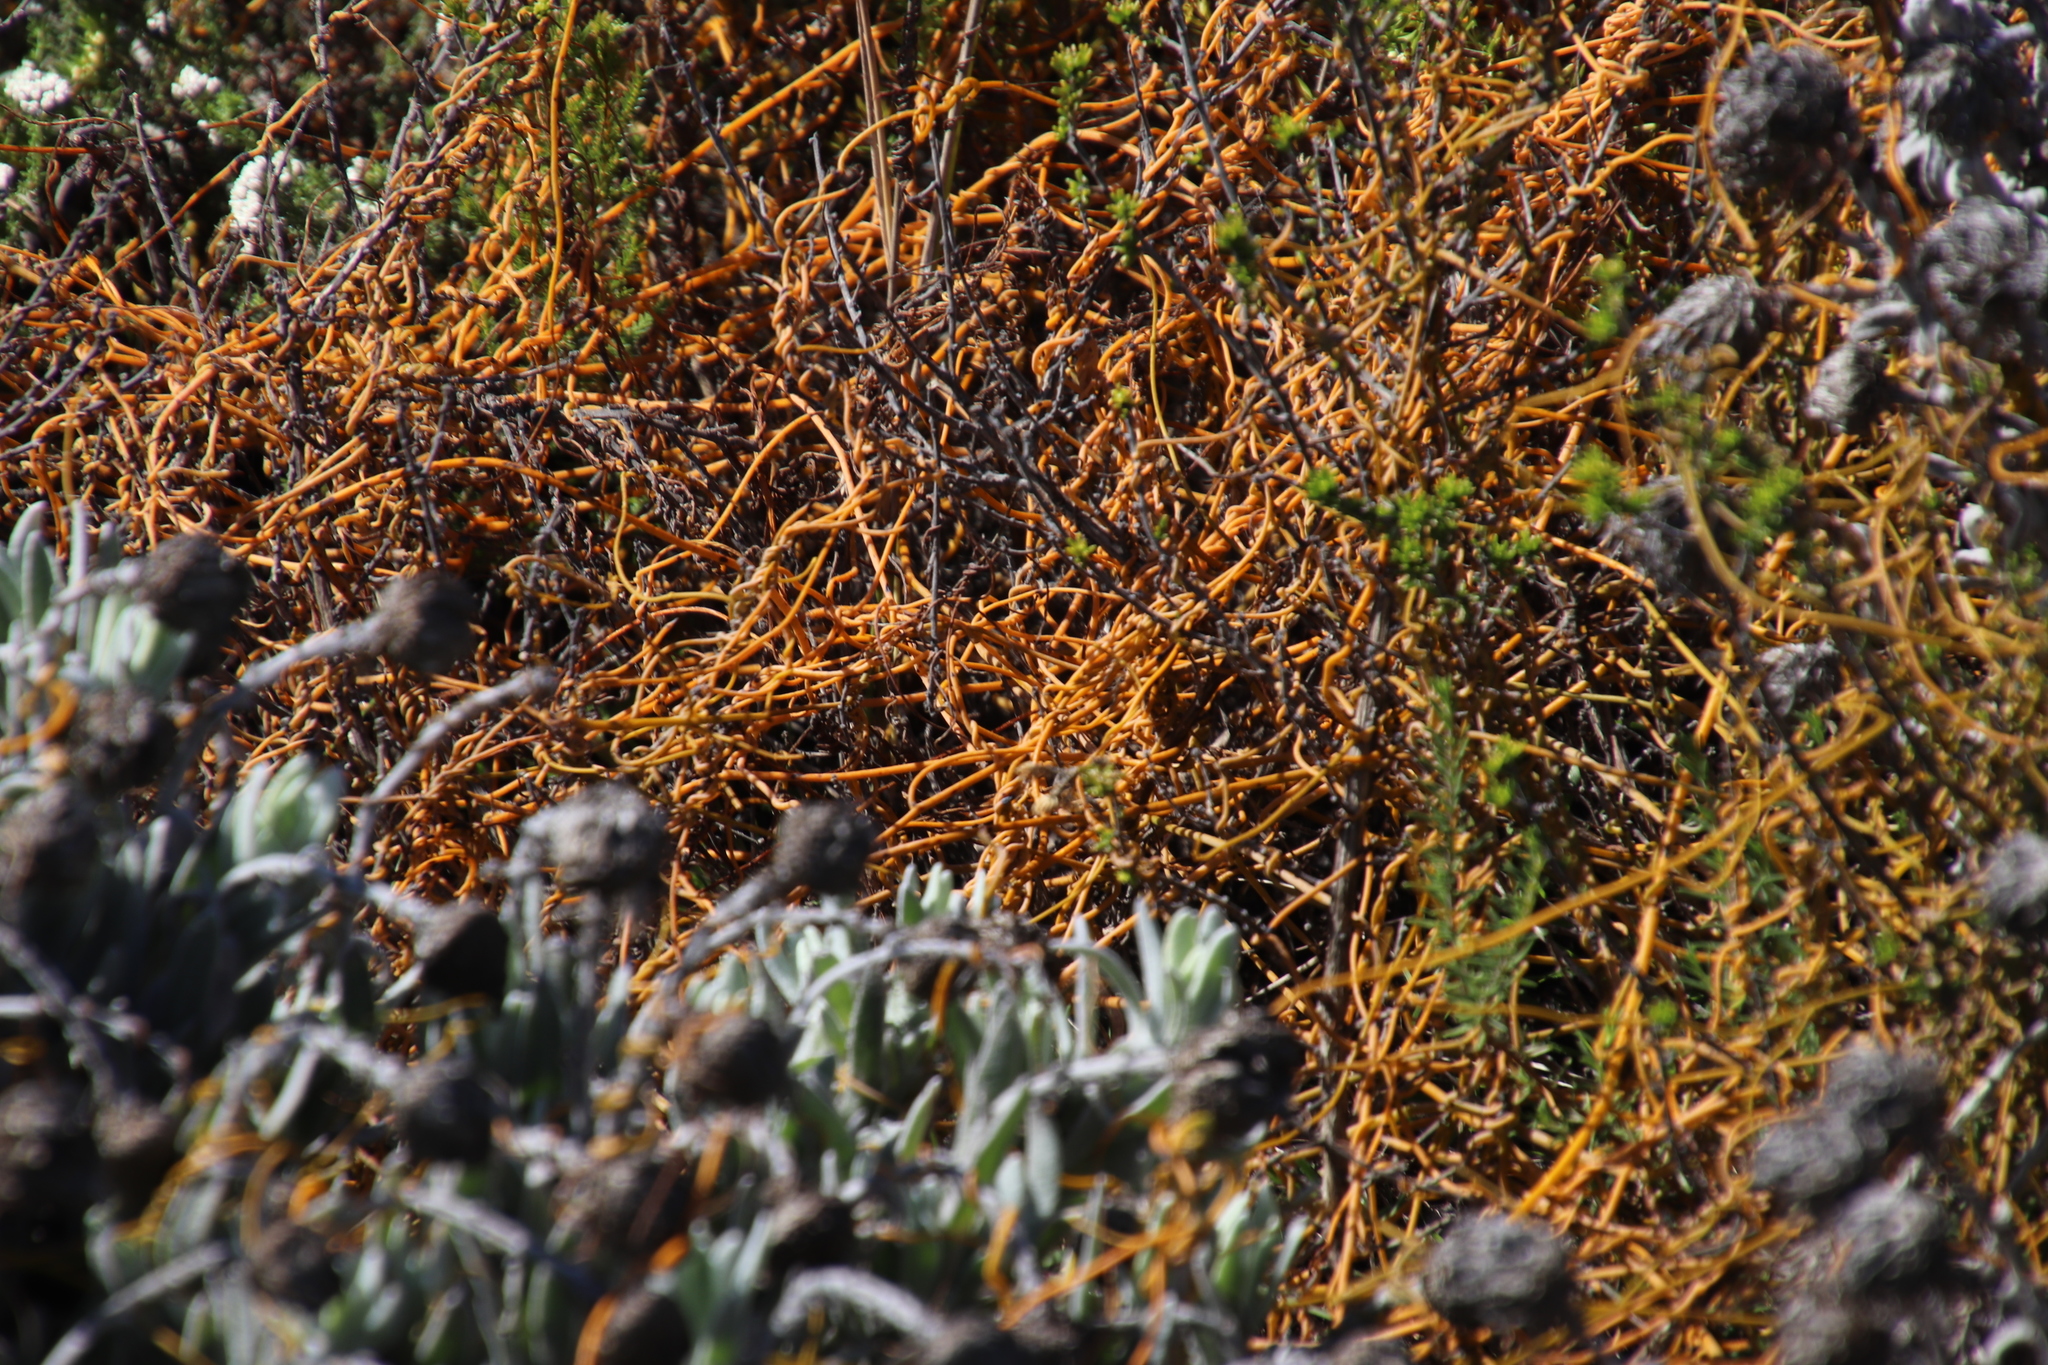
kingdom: Plantae
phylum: Tracheophyta
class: Magnoliopsida
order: Laurales
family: Lauraceae
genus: Cassytha
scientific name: Cassytha ciliolata
